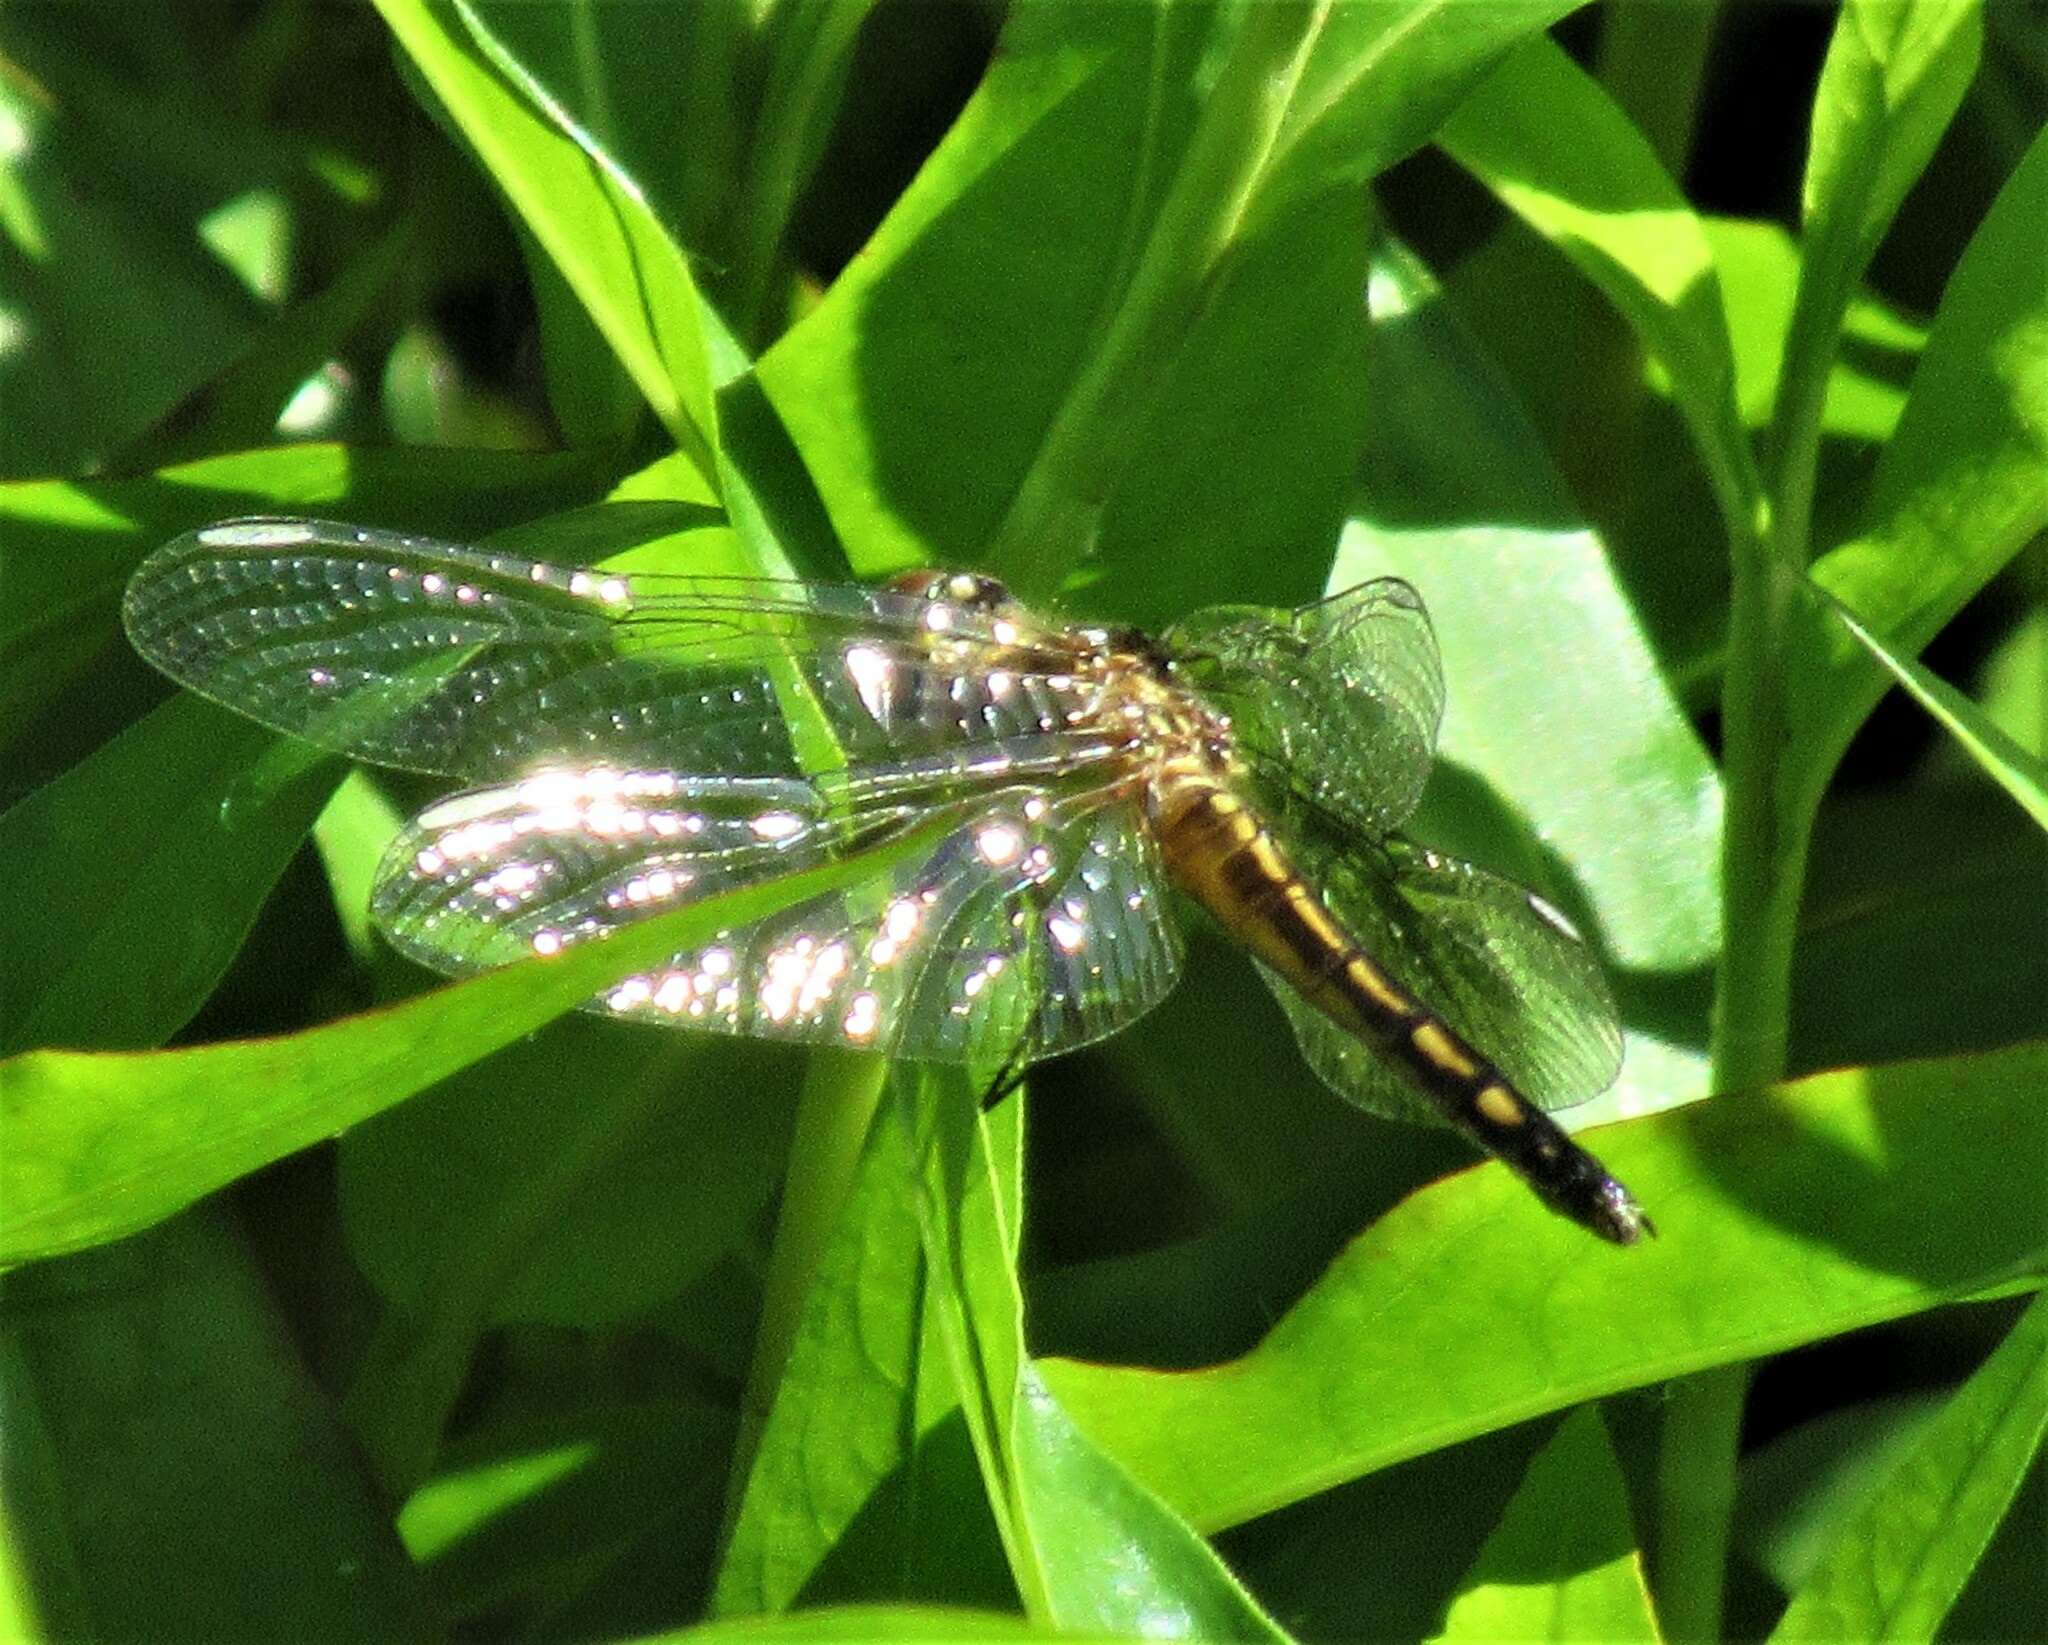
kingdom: Animalia
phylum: Arthropoda
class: Insecta
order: Odonata
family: Libellulidae
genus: Pachydiplax
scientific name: Pachydiplax longipennis
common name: Blue dasher
